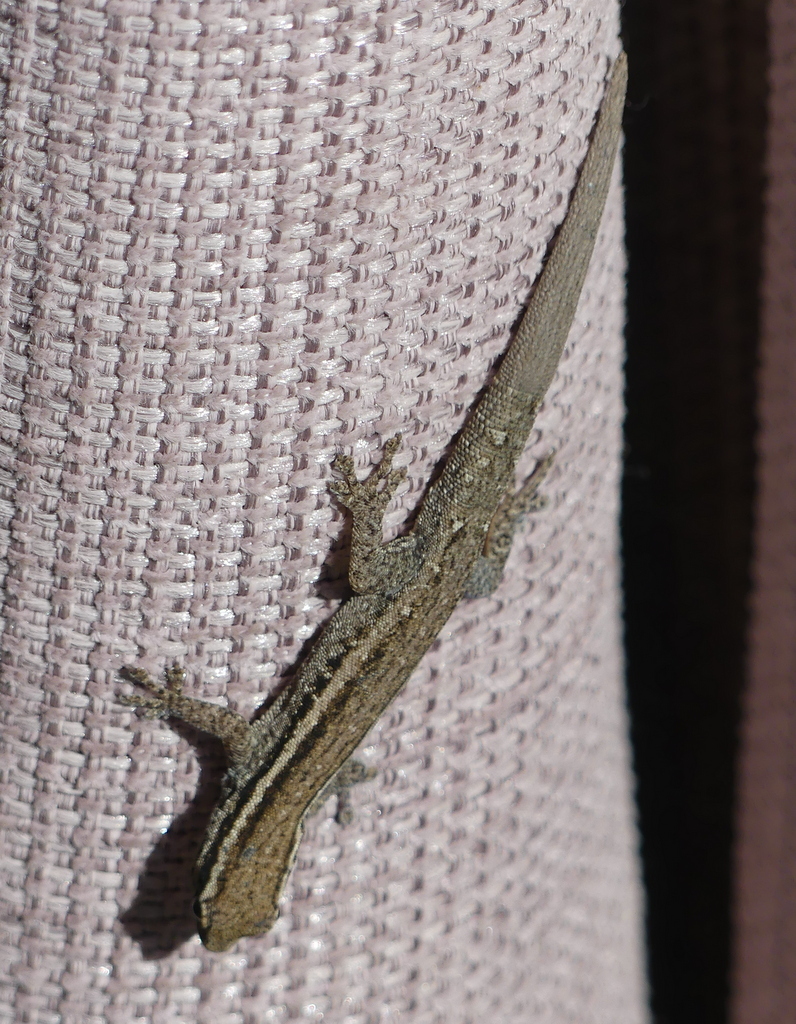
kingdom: Animalia
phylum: Chordata
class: Squamata
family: Gekkonidae
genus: Lygodactylus
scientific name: Lygodactylus capensis
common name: Cape dwarf gecko
